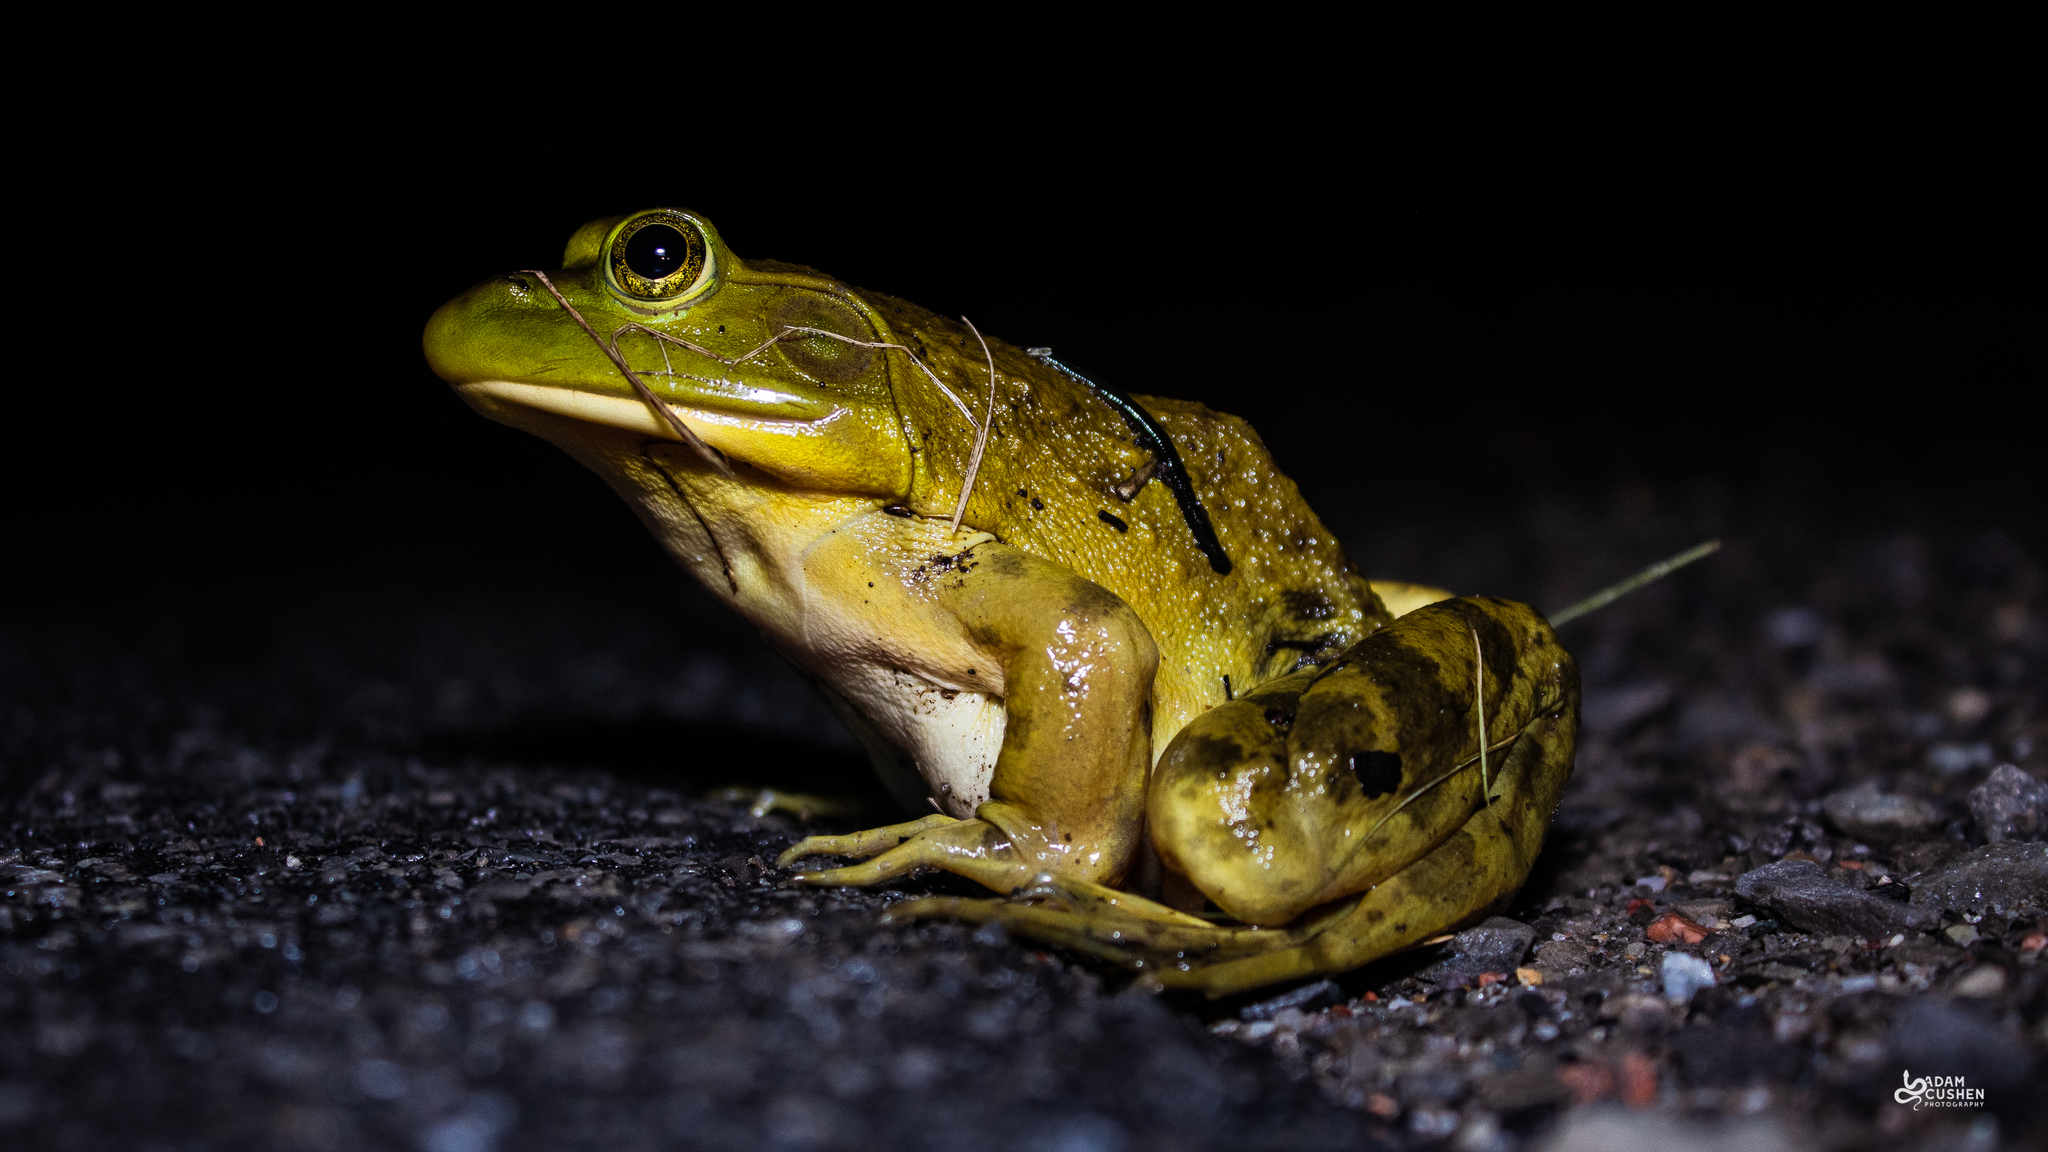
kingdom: Animalia
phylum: Chordata
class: Amphibia
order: Anura
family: Ranidae
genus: Lithobates
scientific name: Lithobates catesbeianus
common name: American bullfrog
